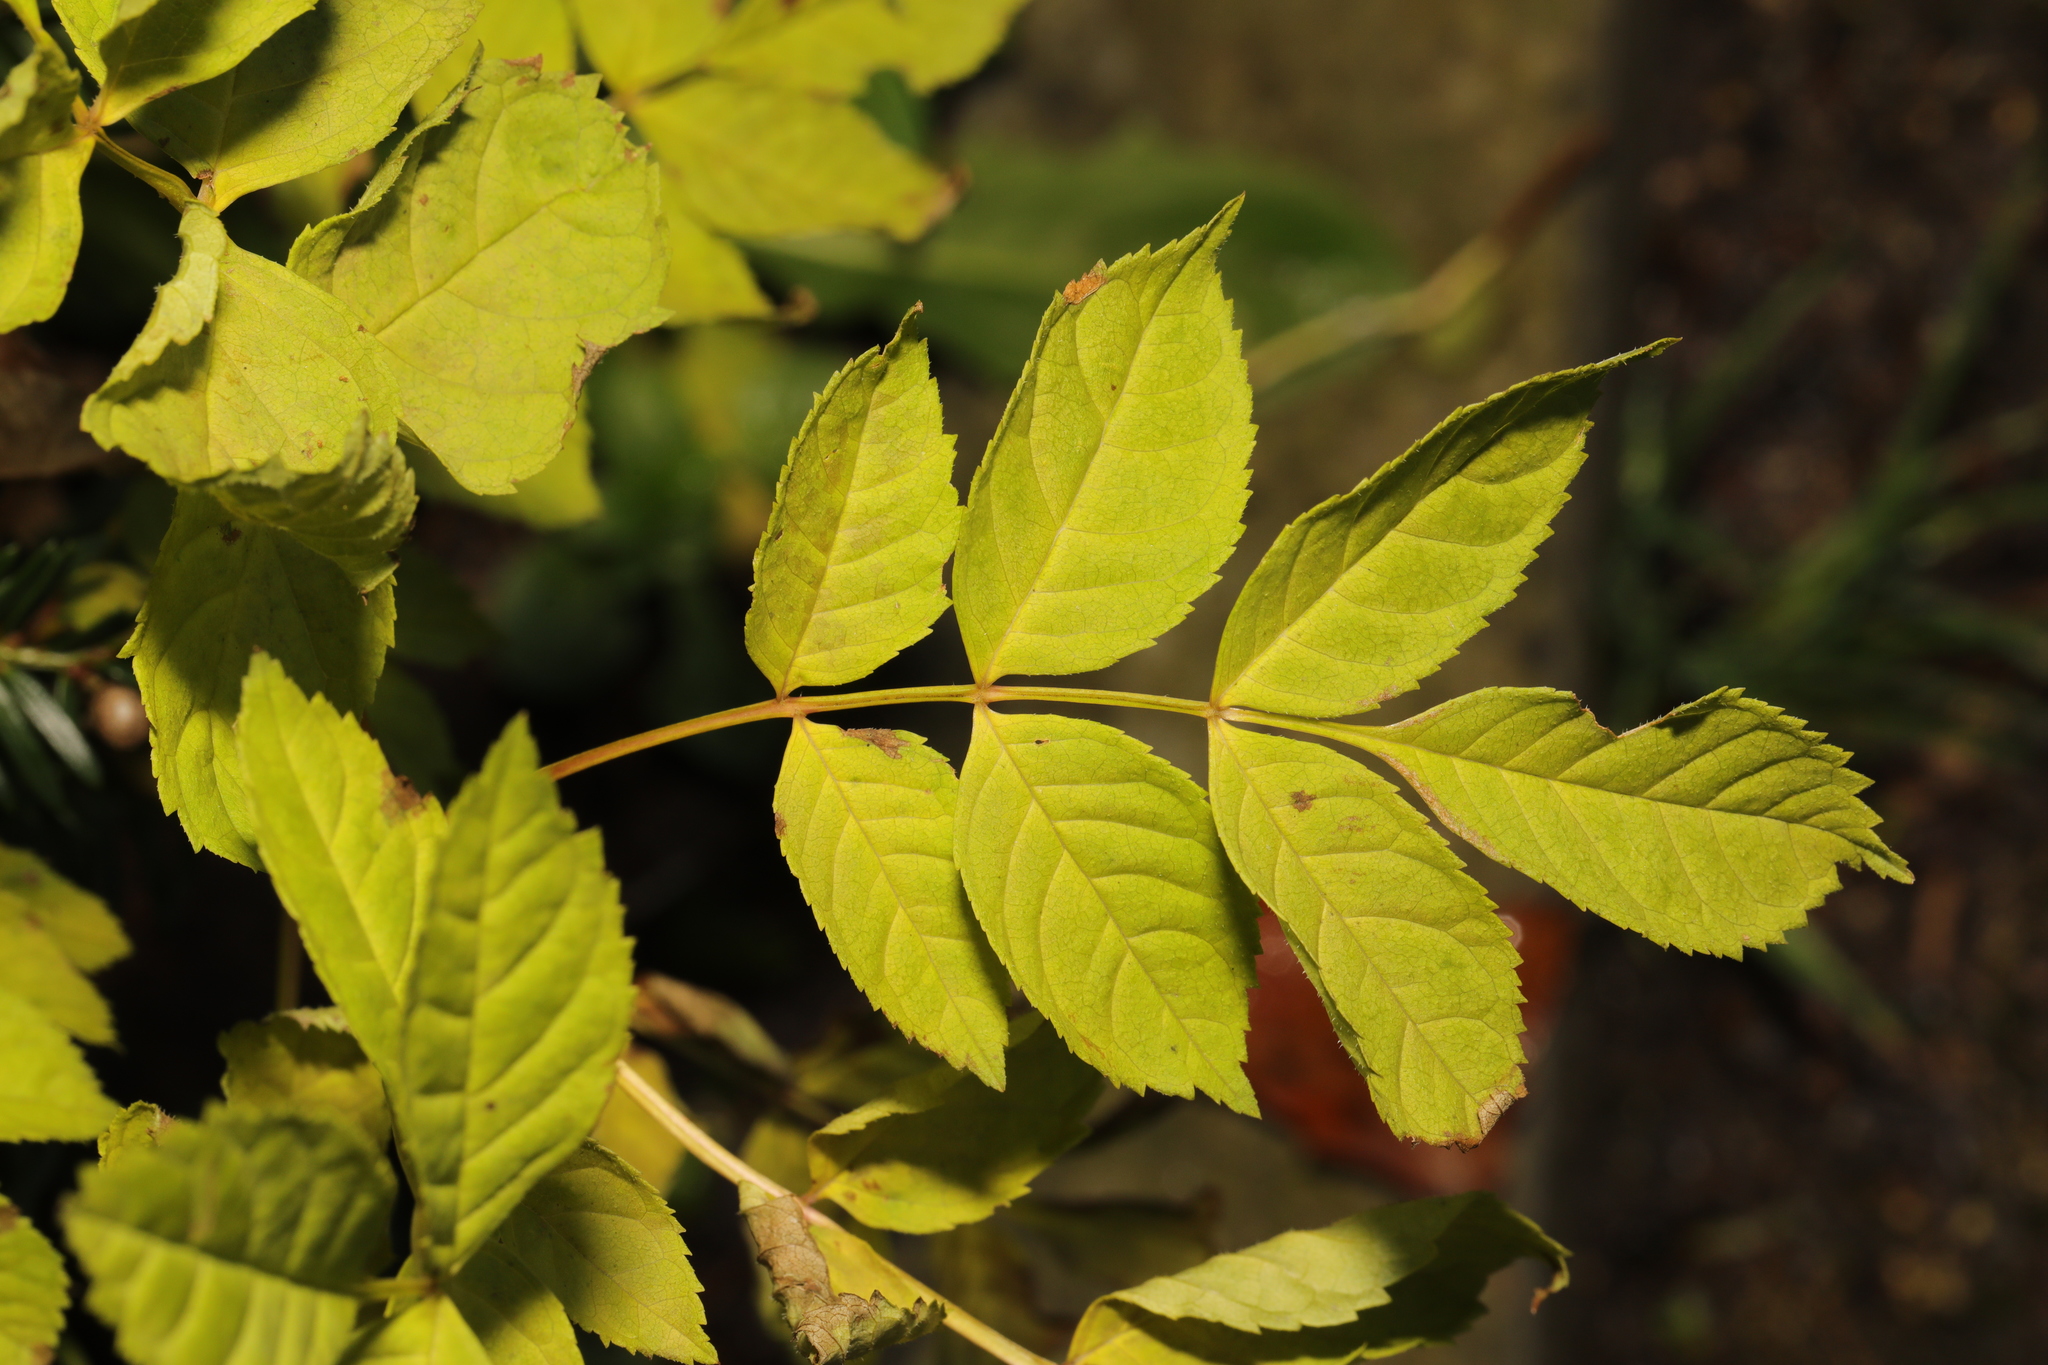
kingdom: Plantae
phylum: Tracheophyta
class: Magnoliopsida
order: Lamiales
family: Oleaceae
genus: Fraxinus
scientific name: Fraxinus excelsior
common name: European ash
